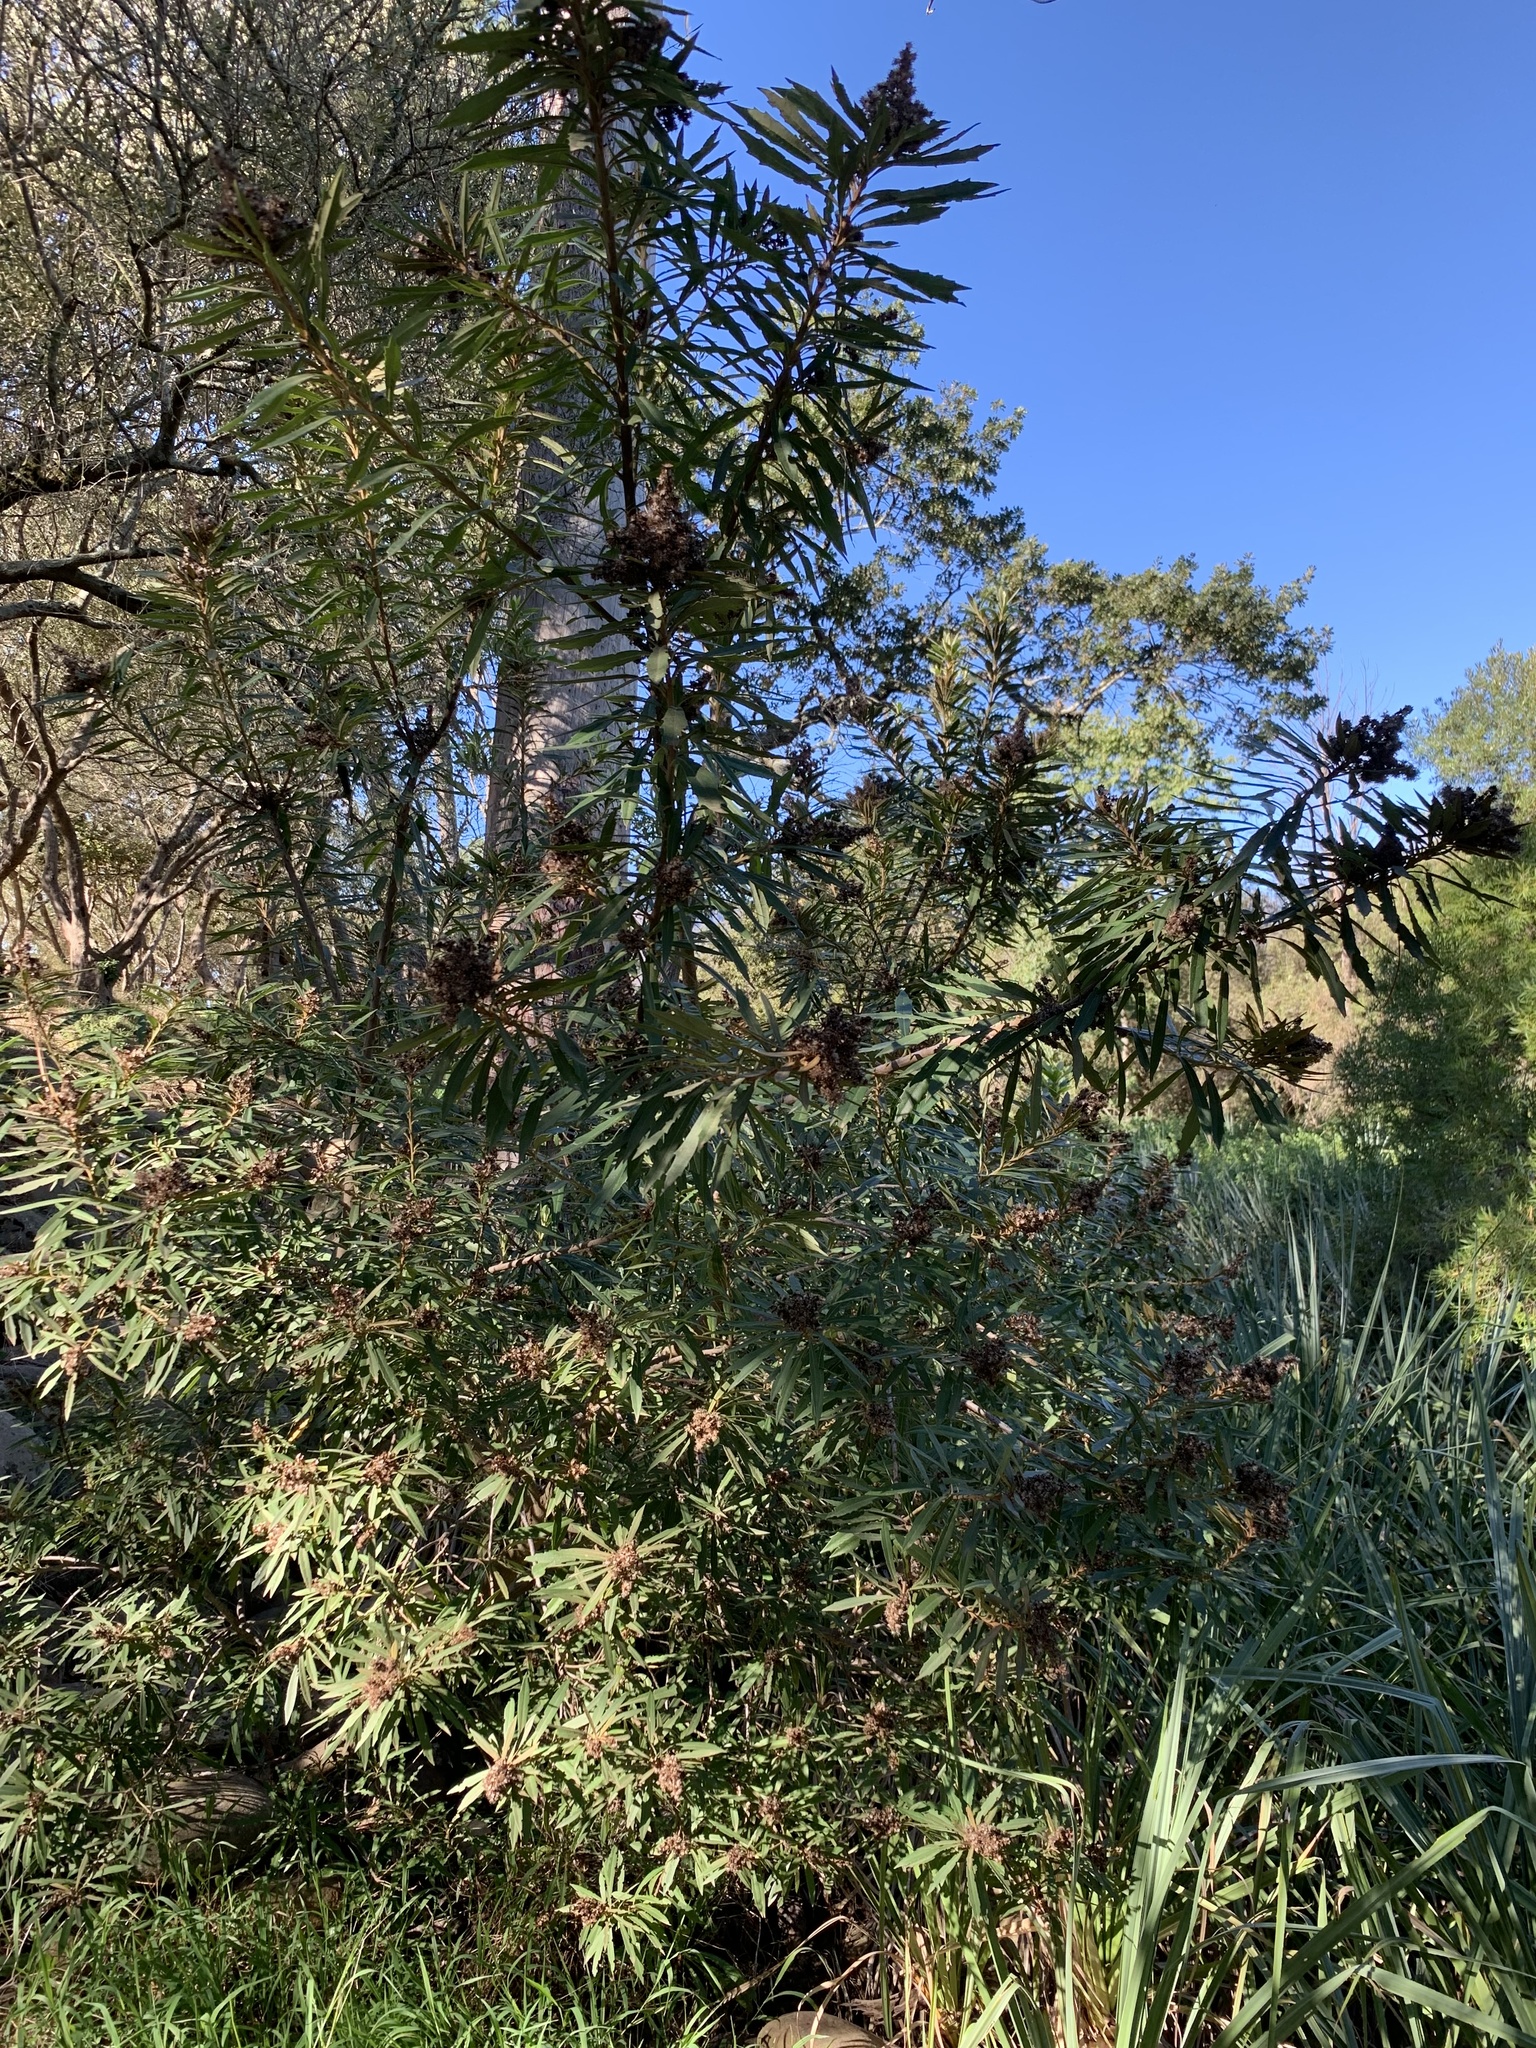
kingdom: Plantae
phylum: Tracheophyta
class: Magnoliopsida
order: Sapindales
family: Anacardiaceae
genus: Searsia
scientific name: Searsia angustifolia
